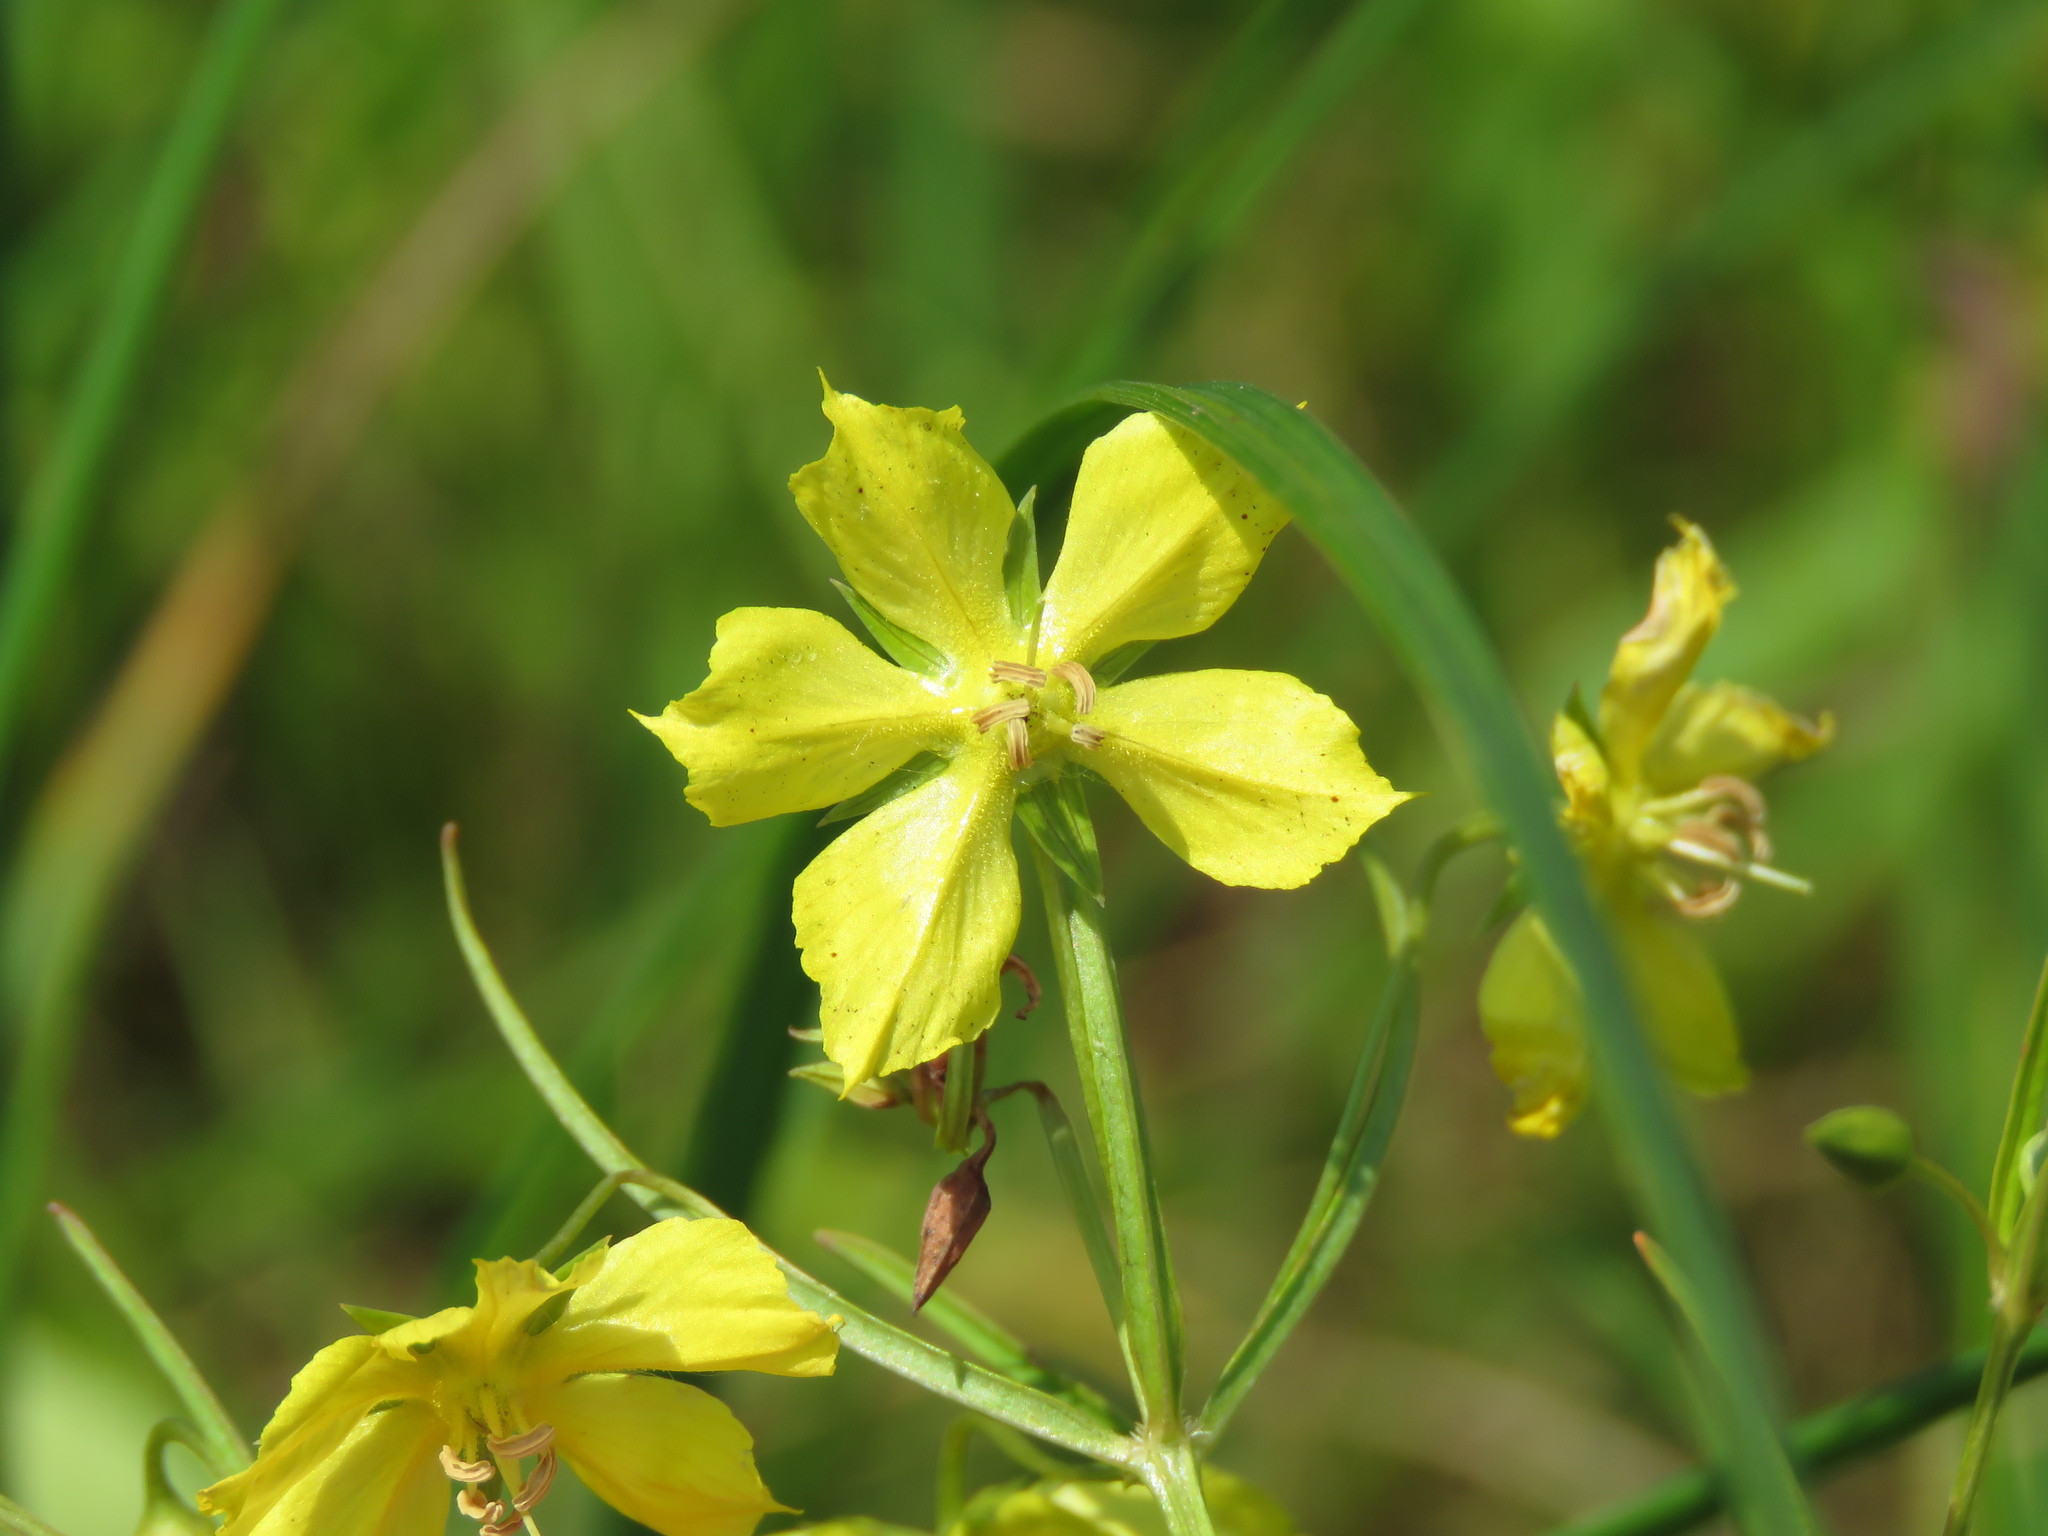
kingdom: Plantae
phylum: Tracheophyta
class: Magnoliopsida
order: Ericales
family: Primulaceae
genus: Lysimachia
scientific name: Lysimachia quadriflora
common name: Four-flowered loosestrife
